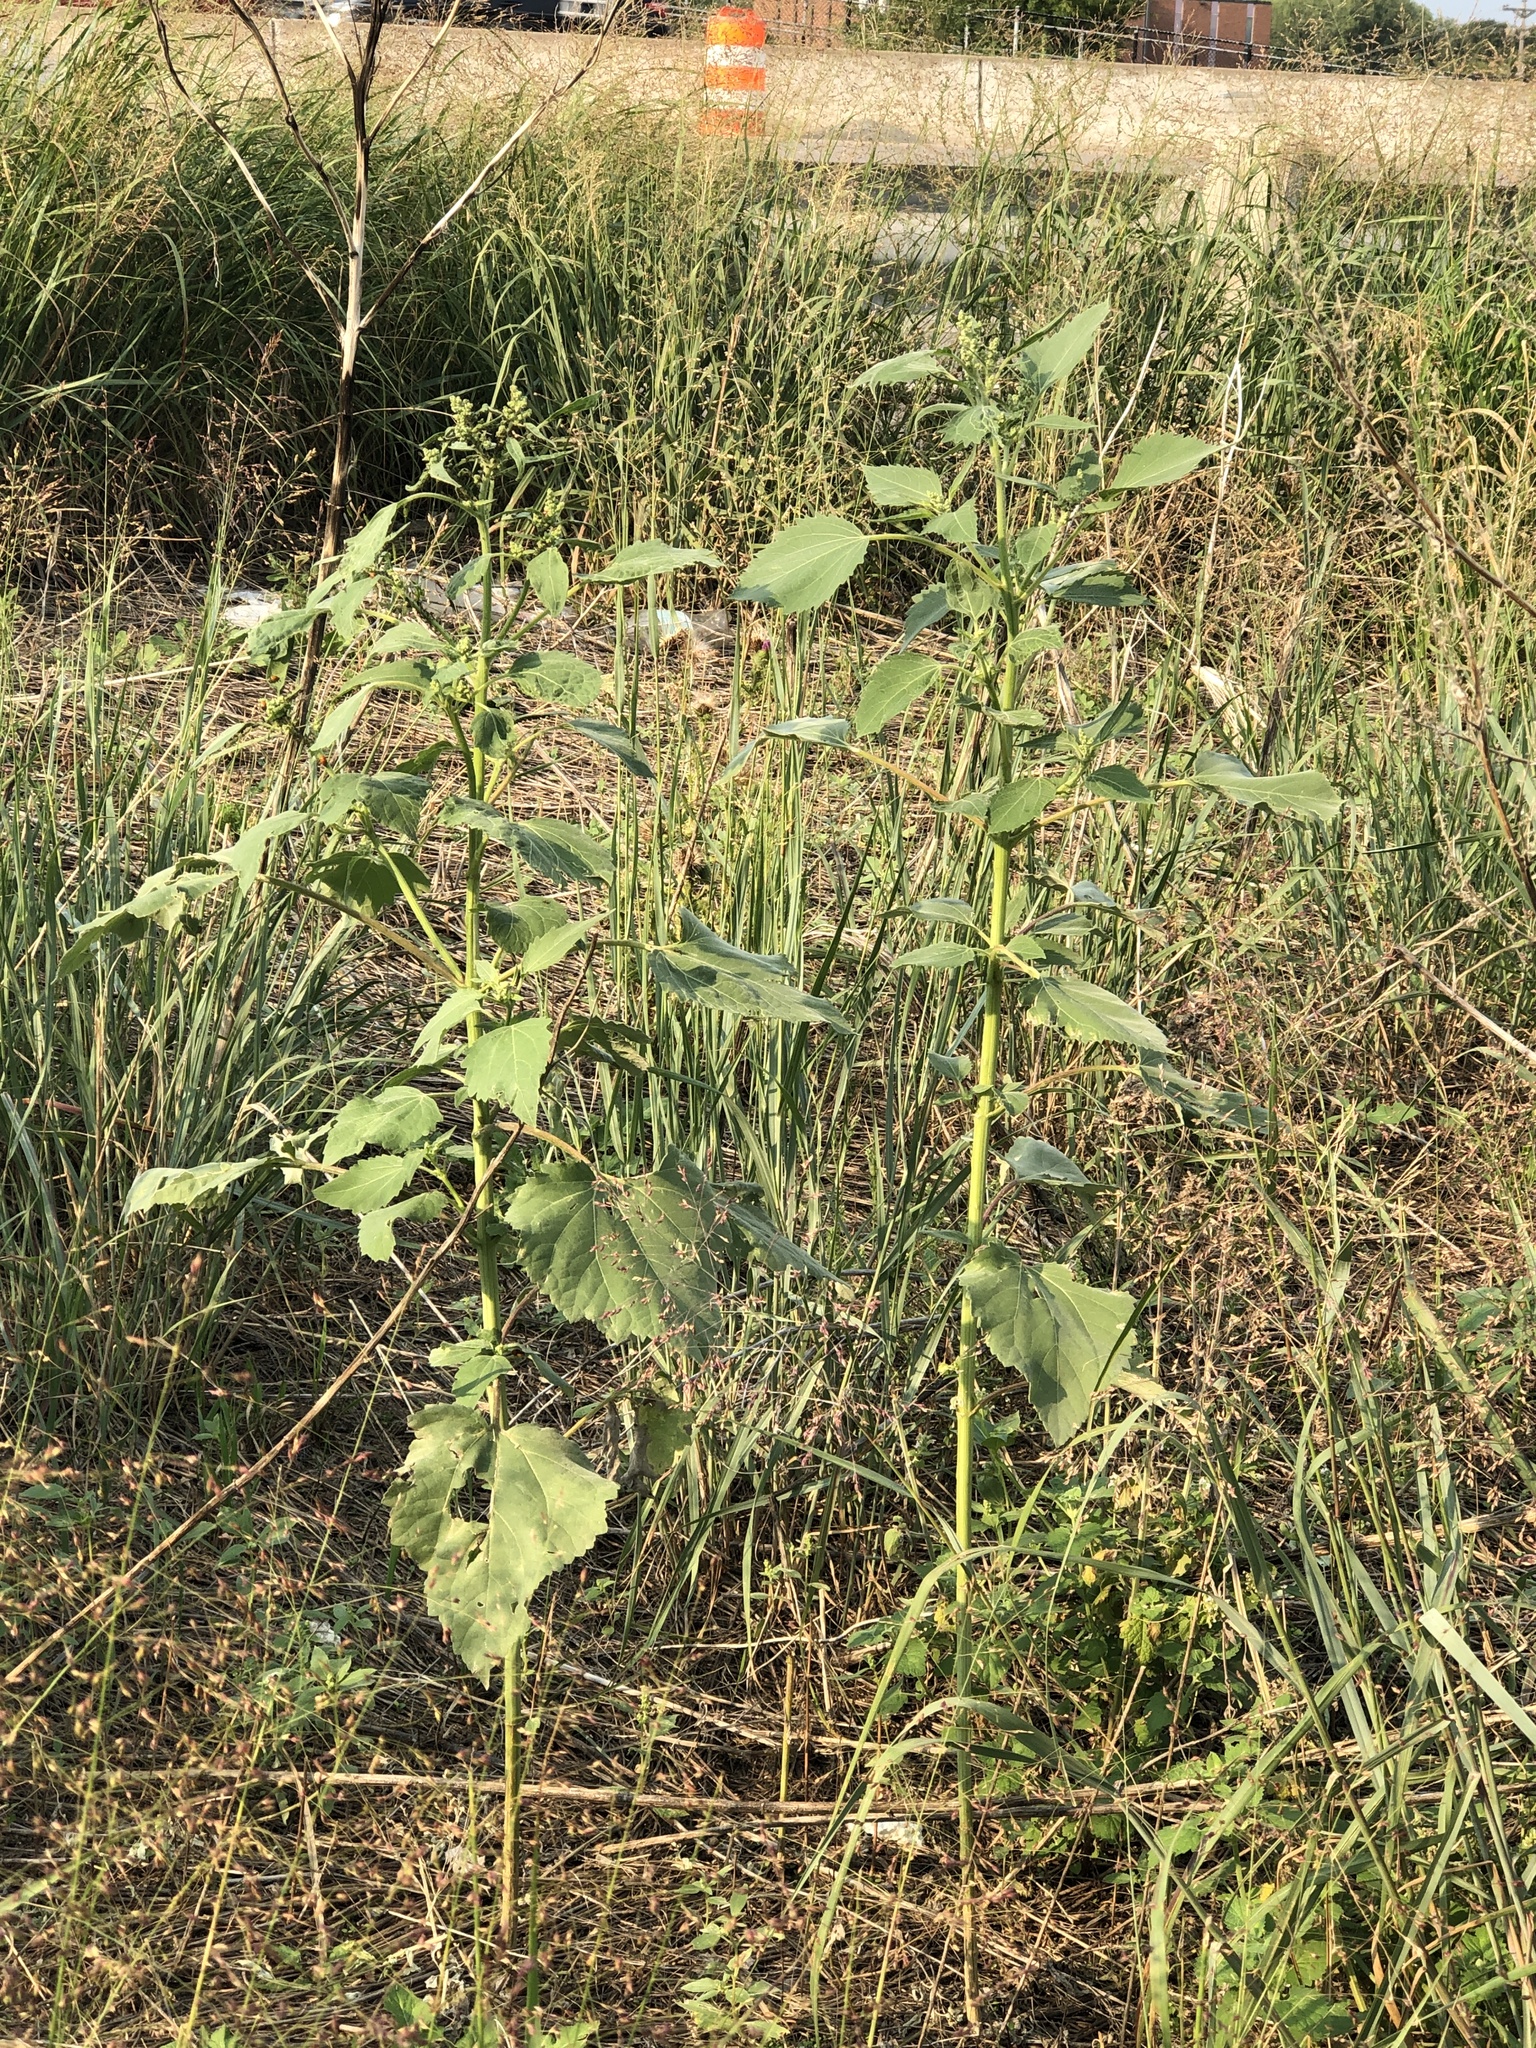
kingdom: Plantae
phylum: Tracheophyta
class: Magnoliopsida
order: Asterales
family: Asteraceae
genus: Cyclachaena
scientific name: Cyclachaena xanthiifolia
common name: Giant sumpweed
